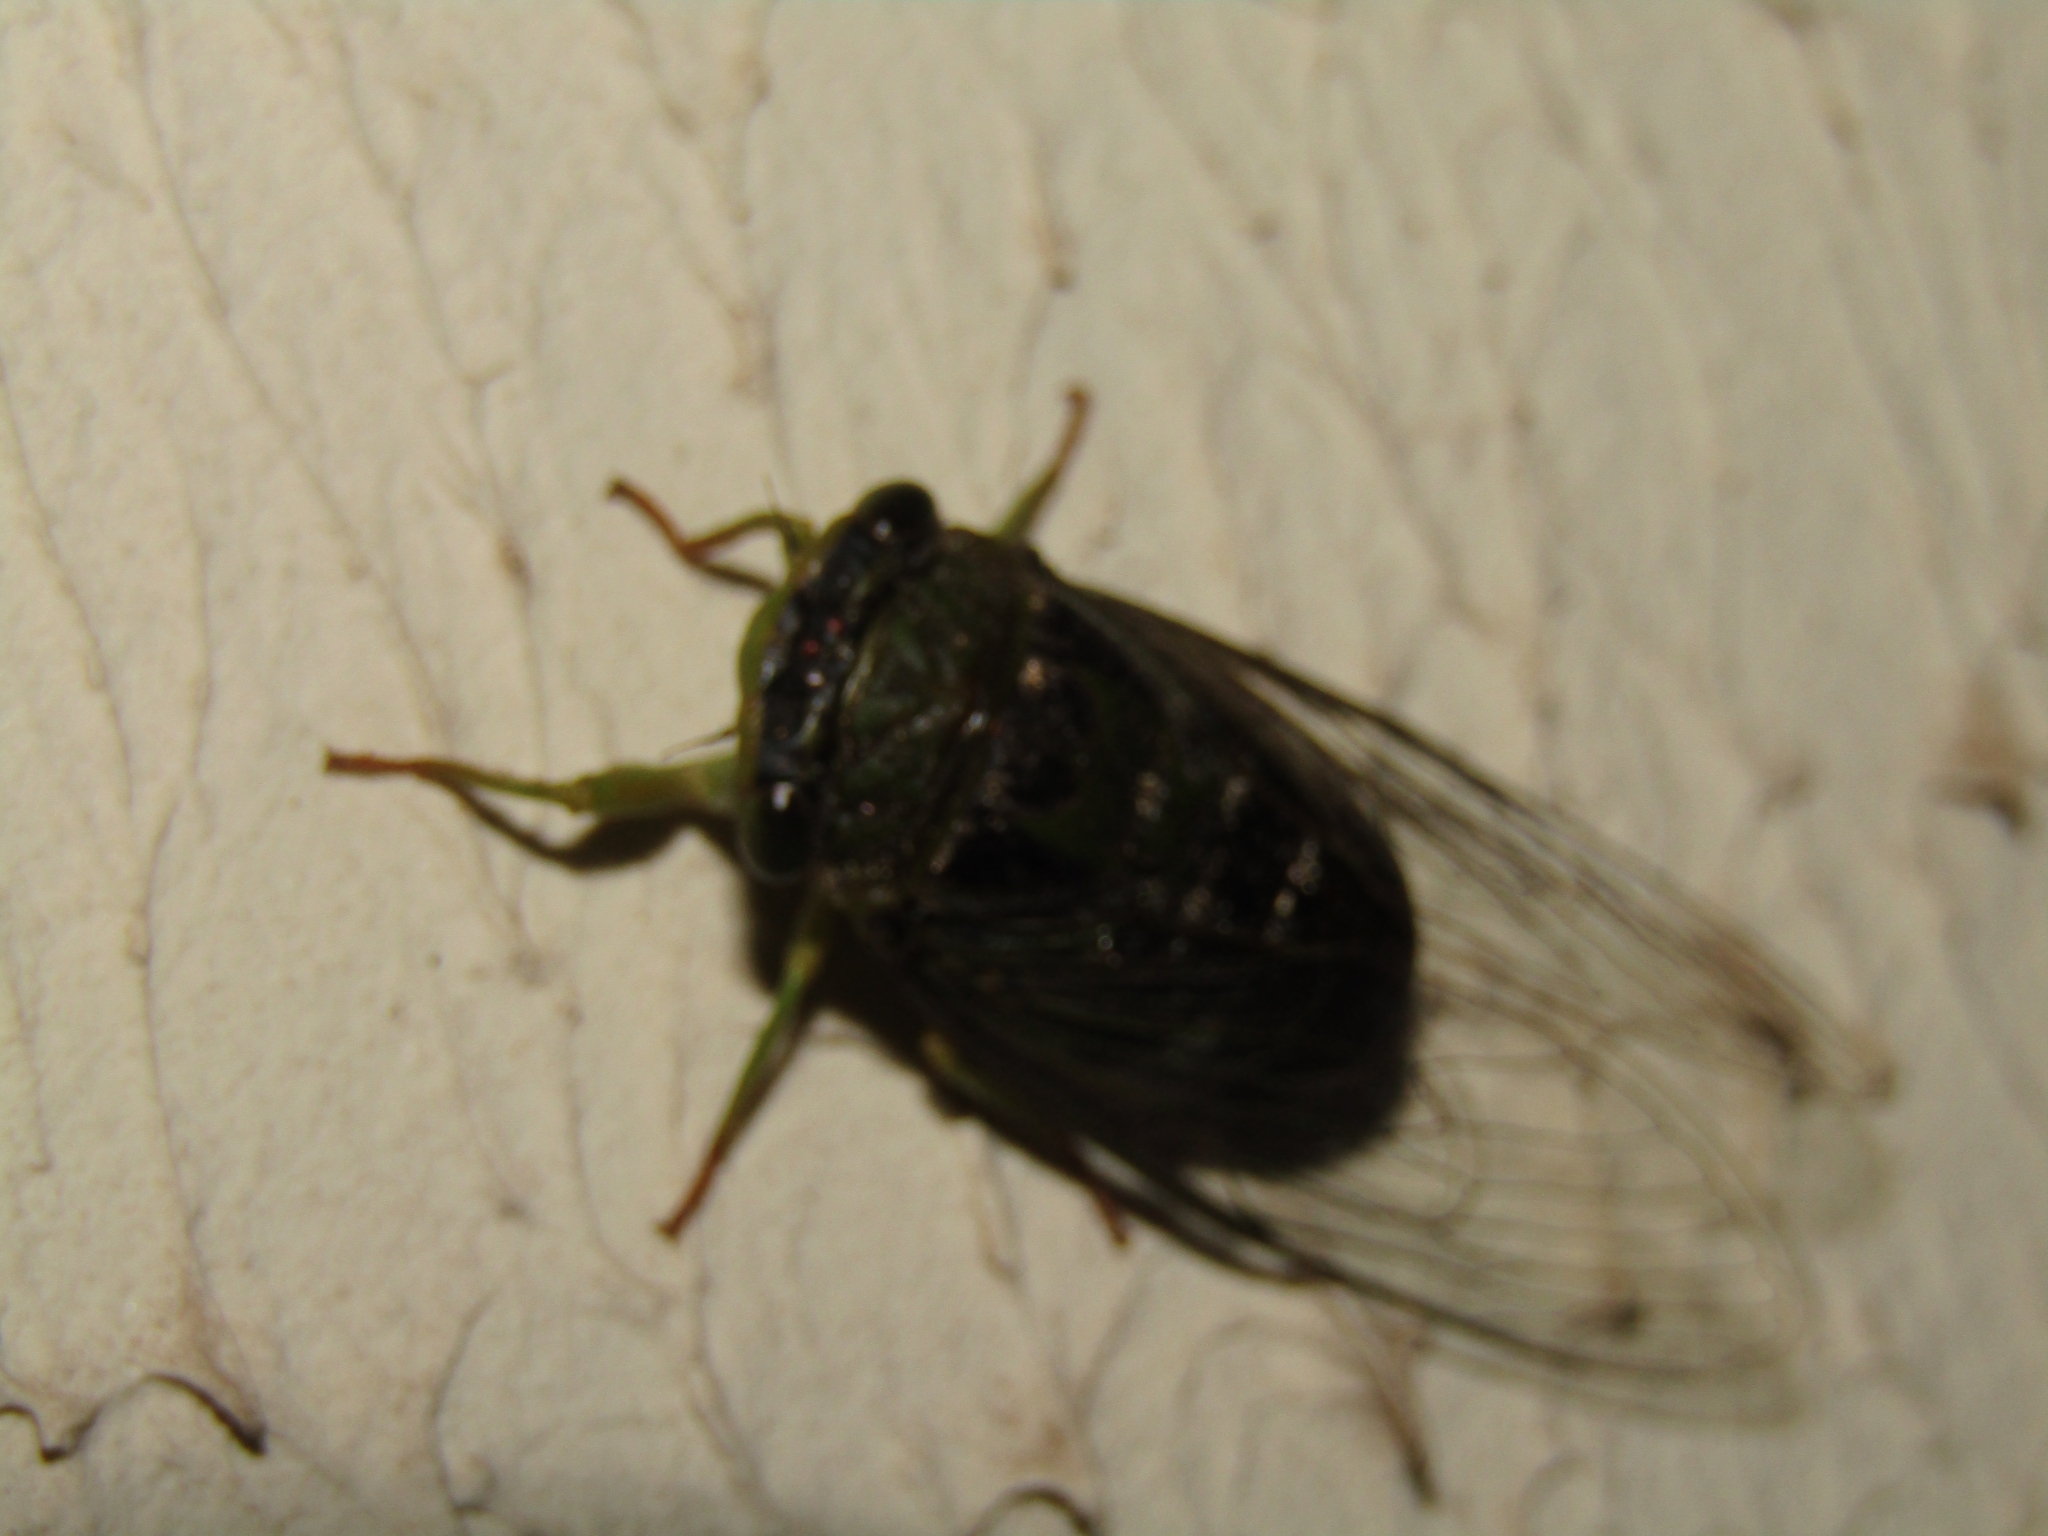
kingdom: Animalia
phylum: Arthropoda
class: Insecta
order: Hemiptera
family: Cicadidae
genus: Acanthoventris
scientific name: Acanthoventris drewseni
